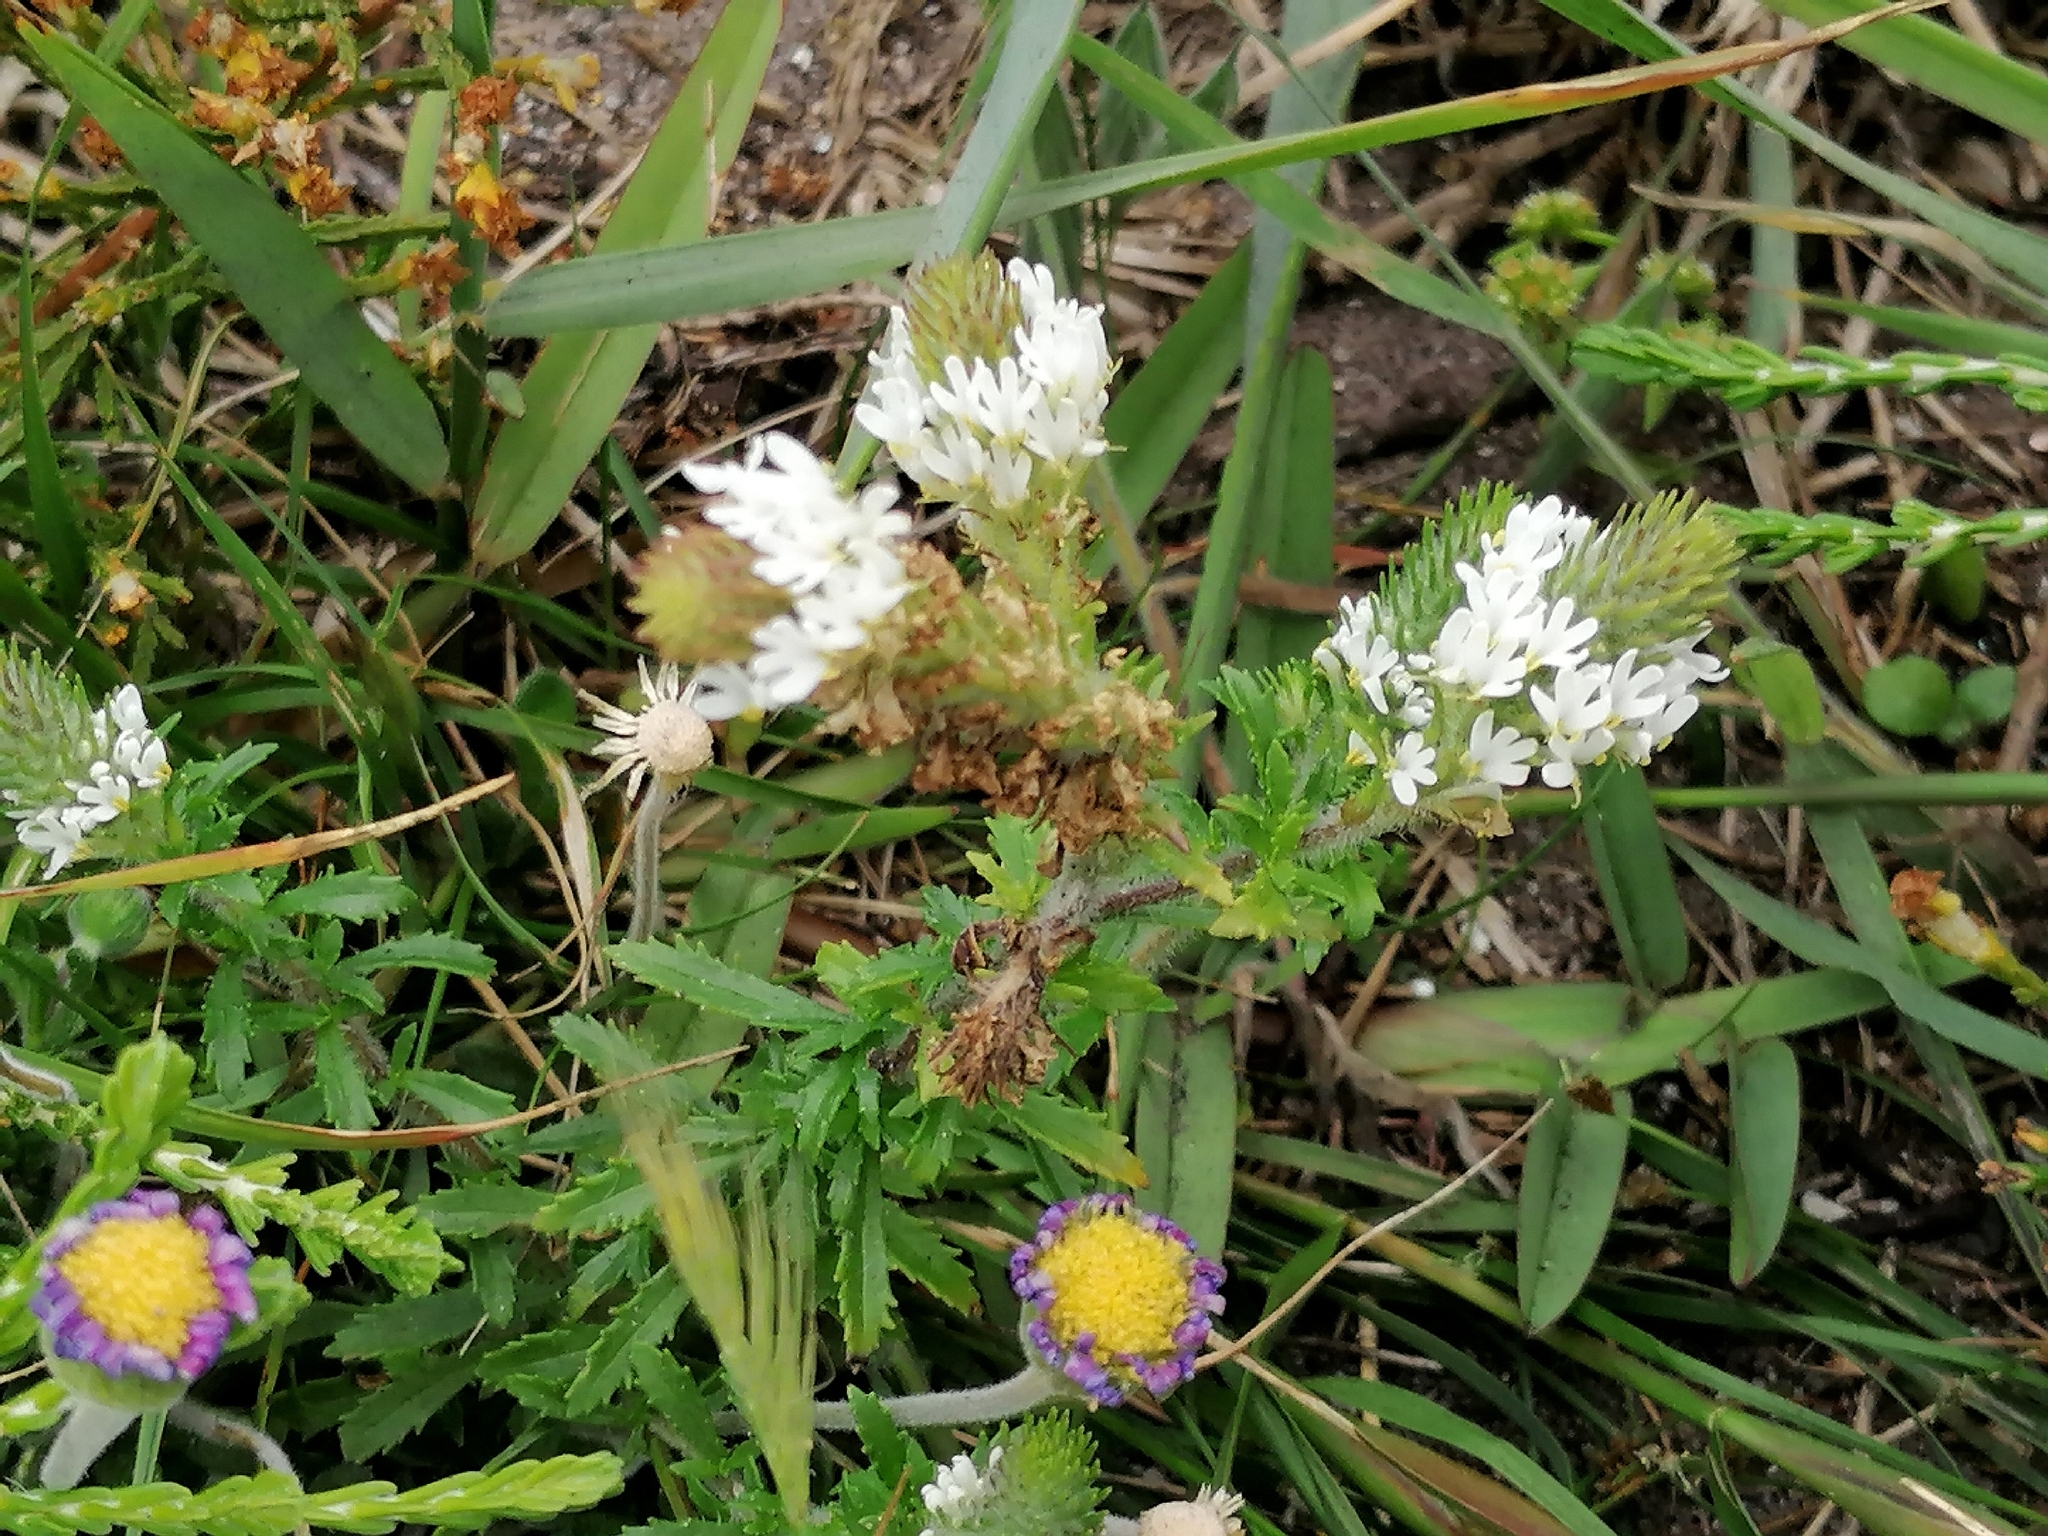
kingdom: Plantae
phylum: Tracheophyta
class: Magnoliopsida
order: Lamiales
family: Scrophulariaceae
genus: Dischisma
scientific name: Dischisma ciliatum
